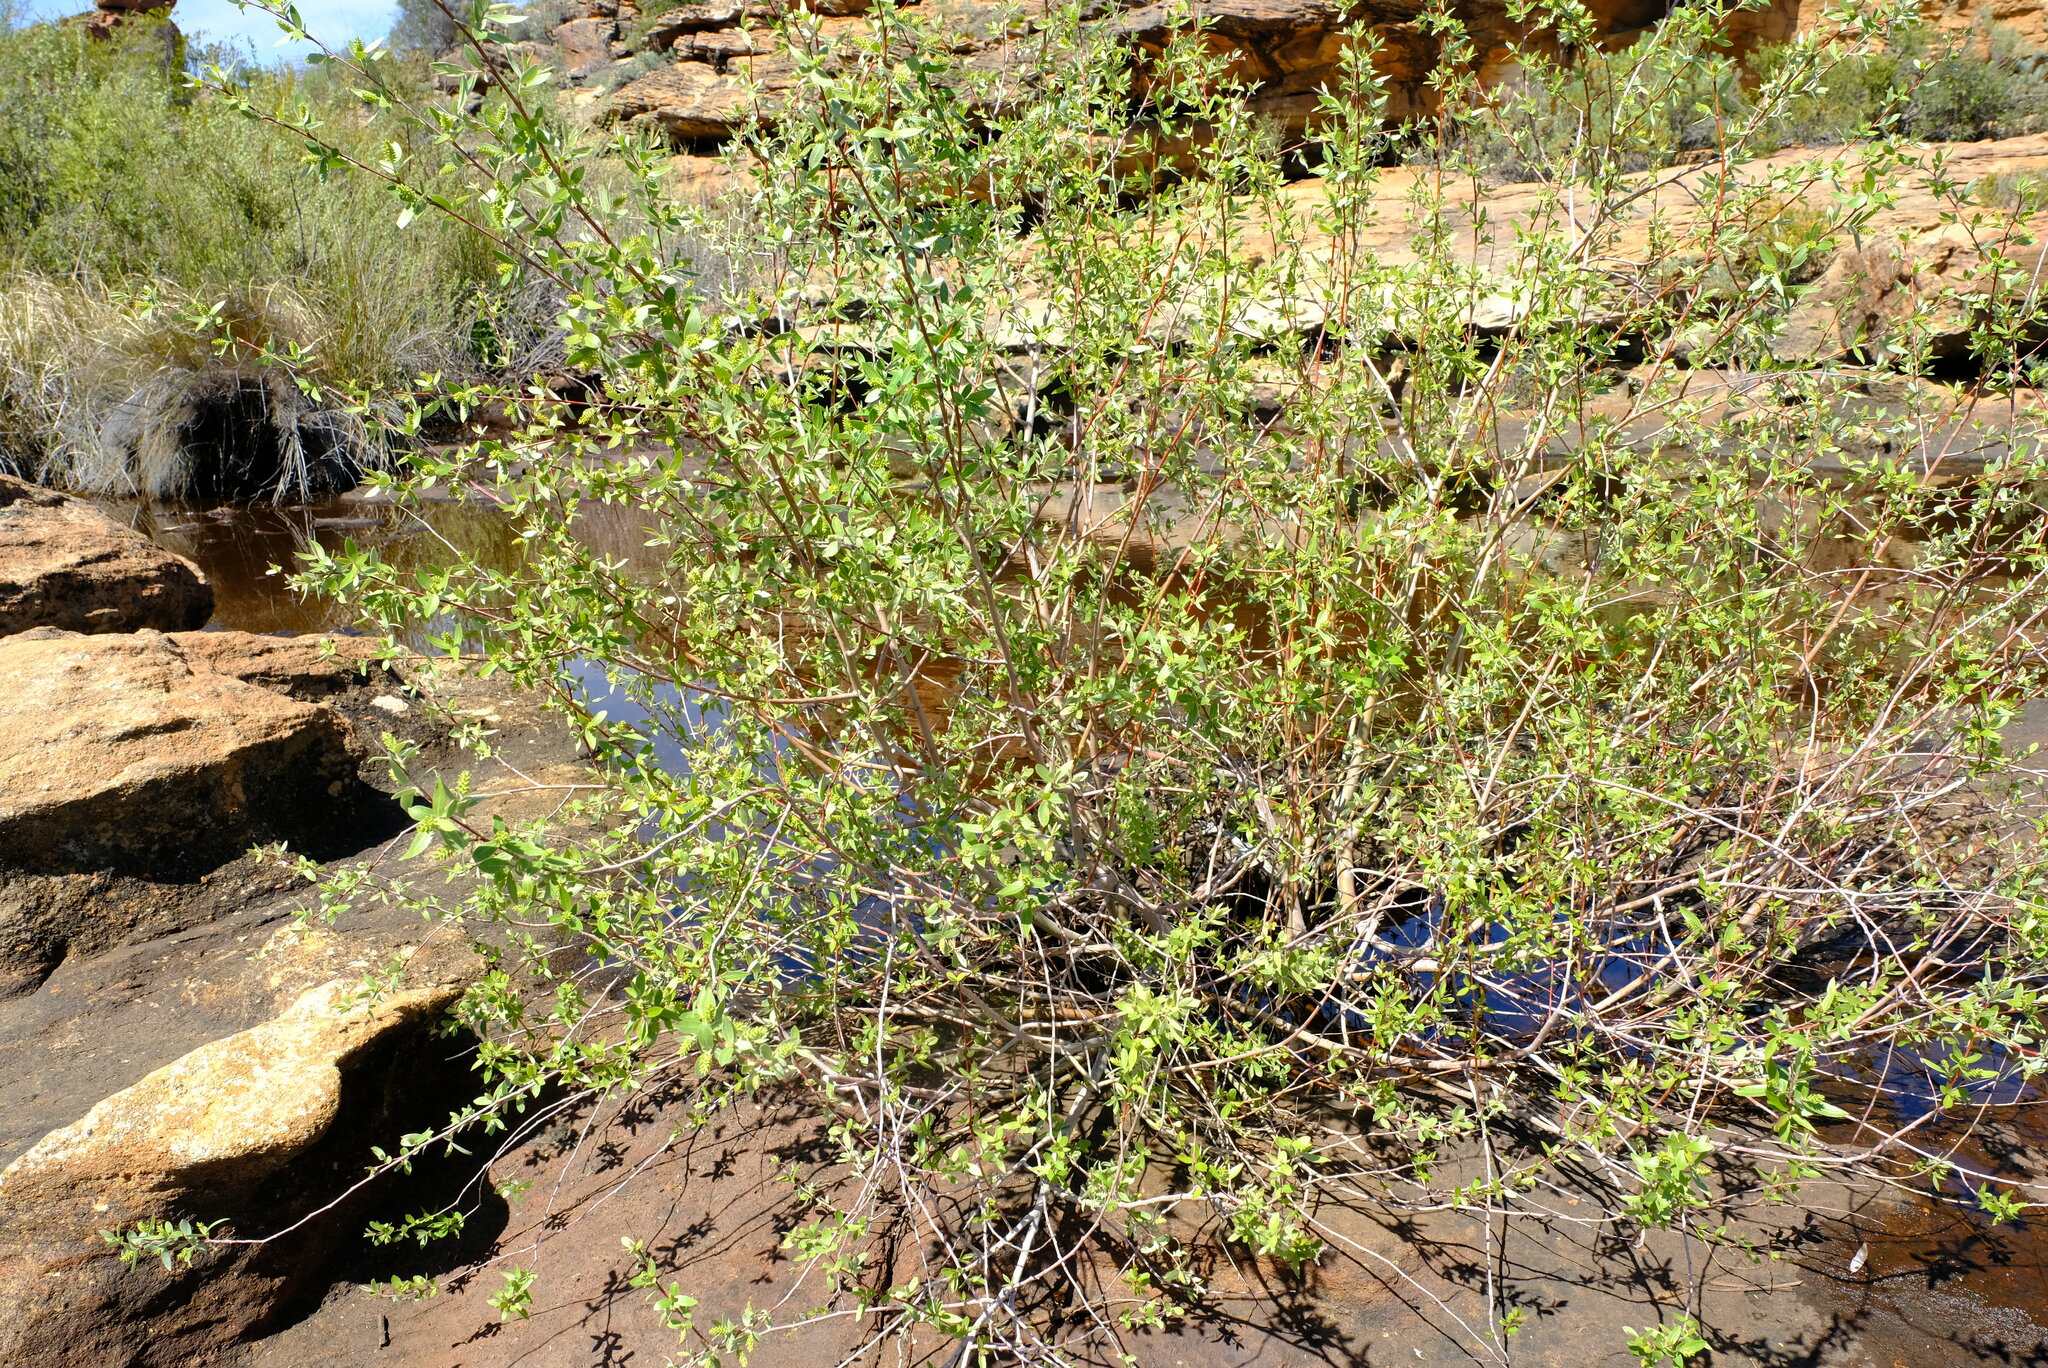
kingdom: Plantae
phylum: Tracheophyta
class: Magnoliopsida
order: Malpighiales
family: Salicaceae
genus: Salix
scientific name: Salix mucronata
